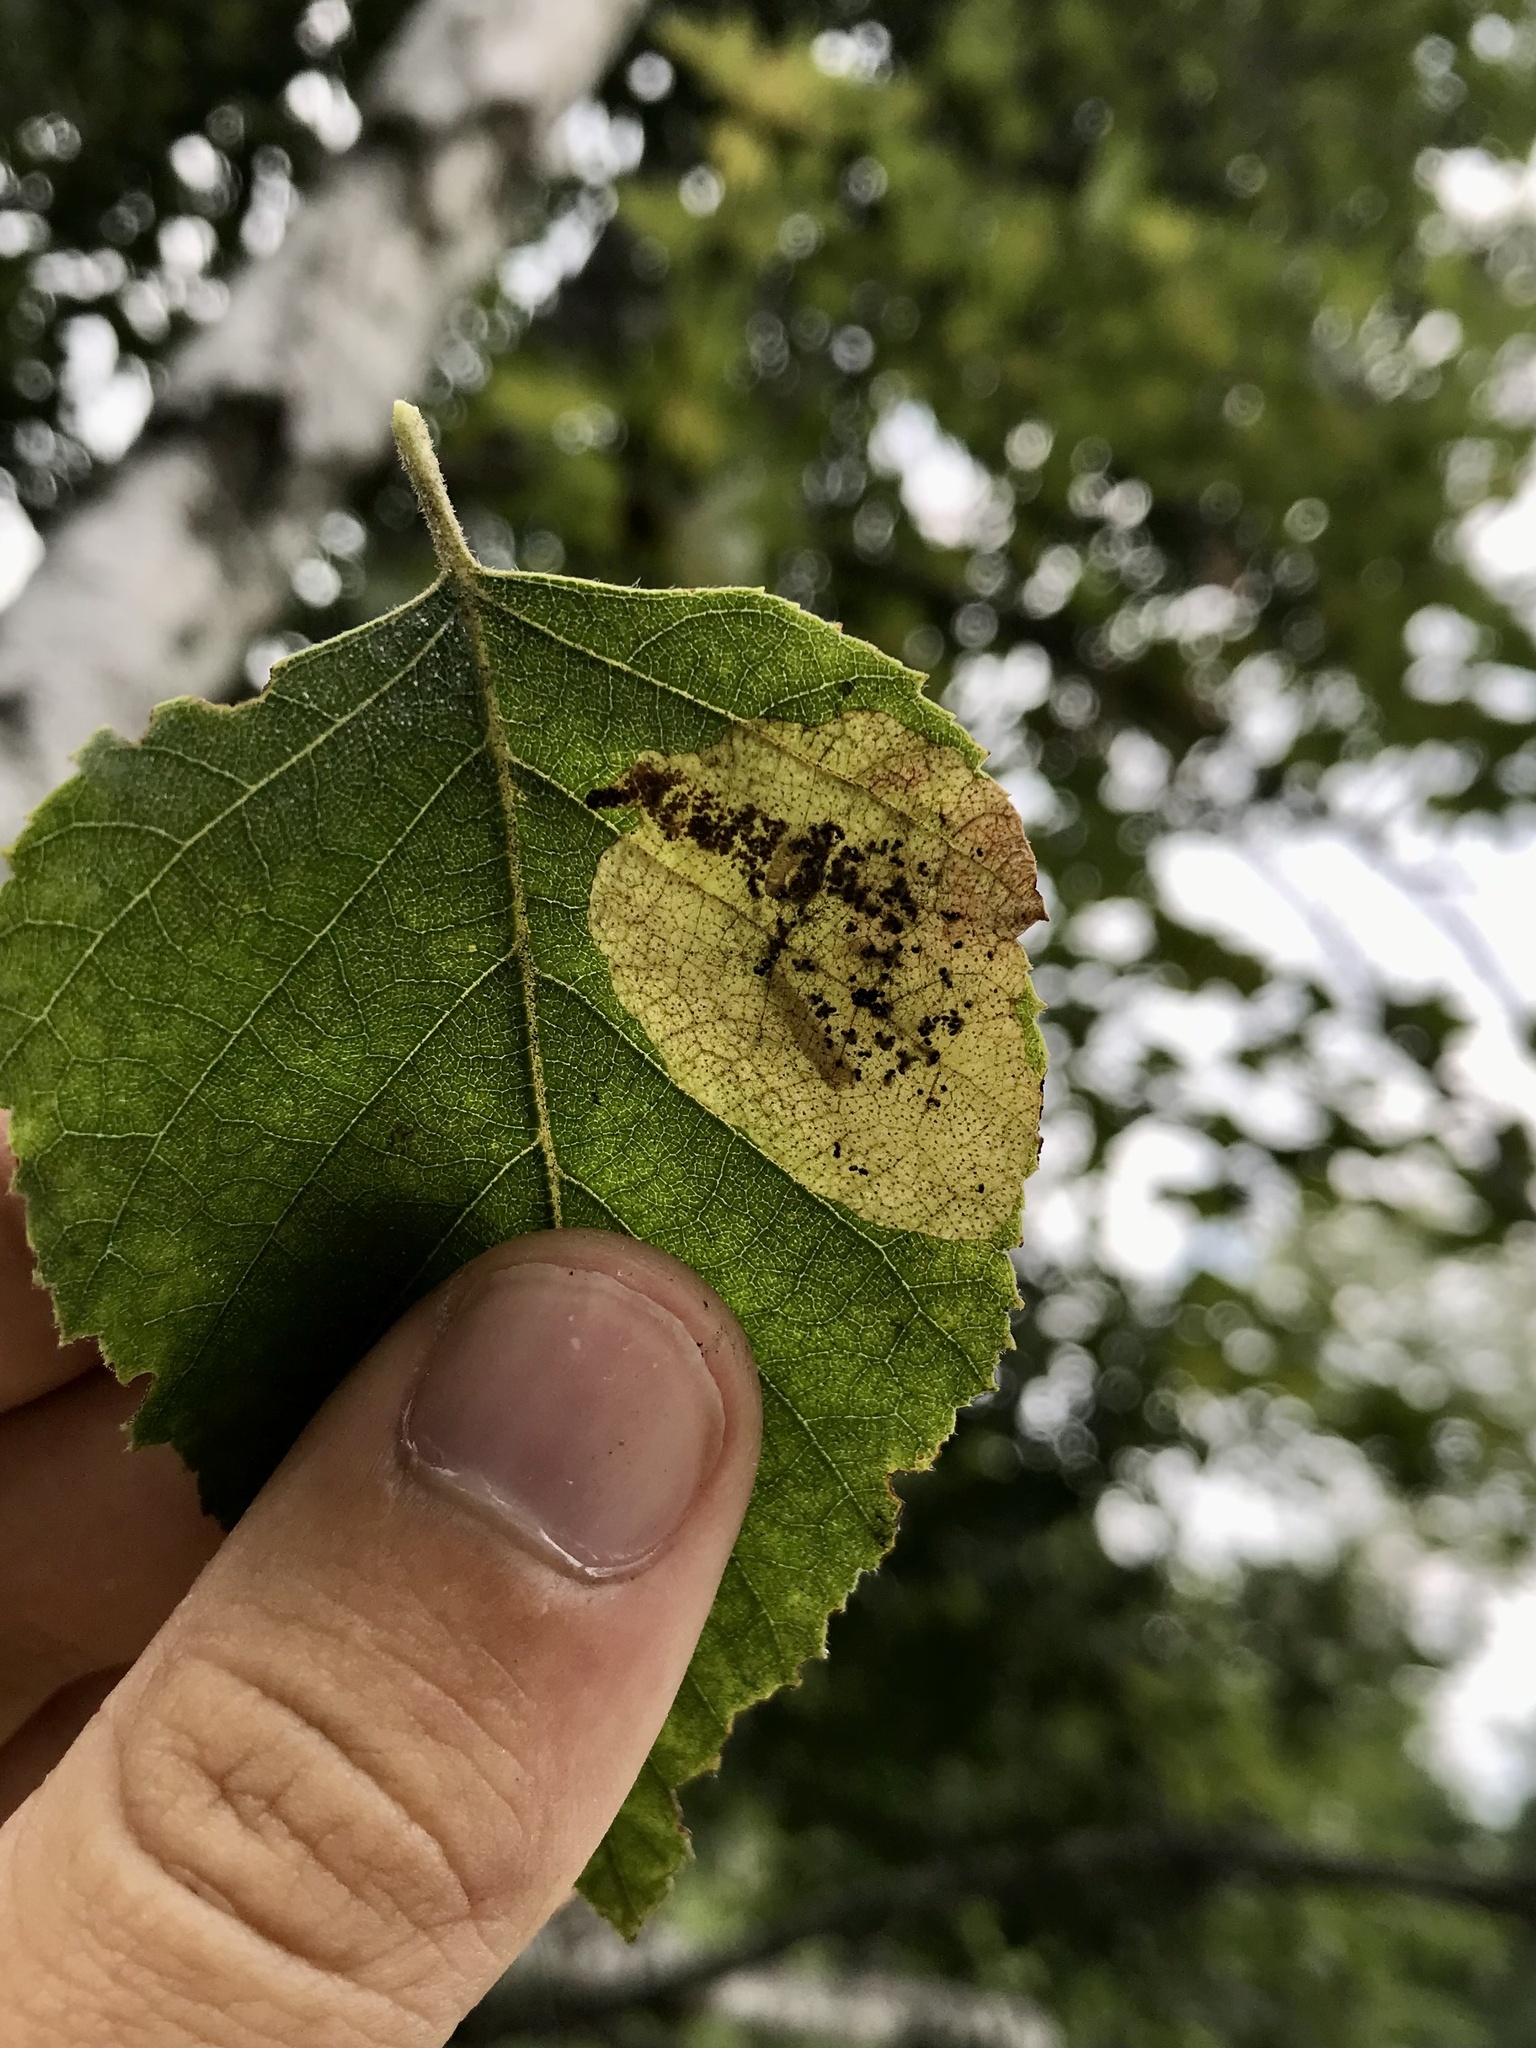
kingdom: Animalia
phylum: Arthropoda
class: Insecta
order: Hymenoptera
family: Tenthredinidae
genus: Profenusa
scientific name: Profenusa thomsoni
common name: Amber-marked birch leafminer
